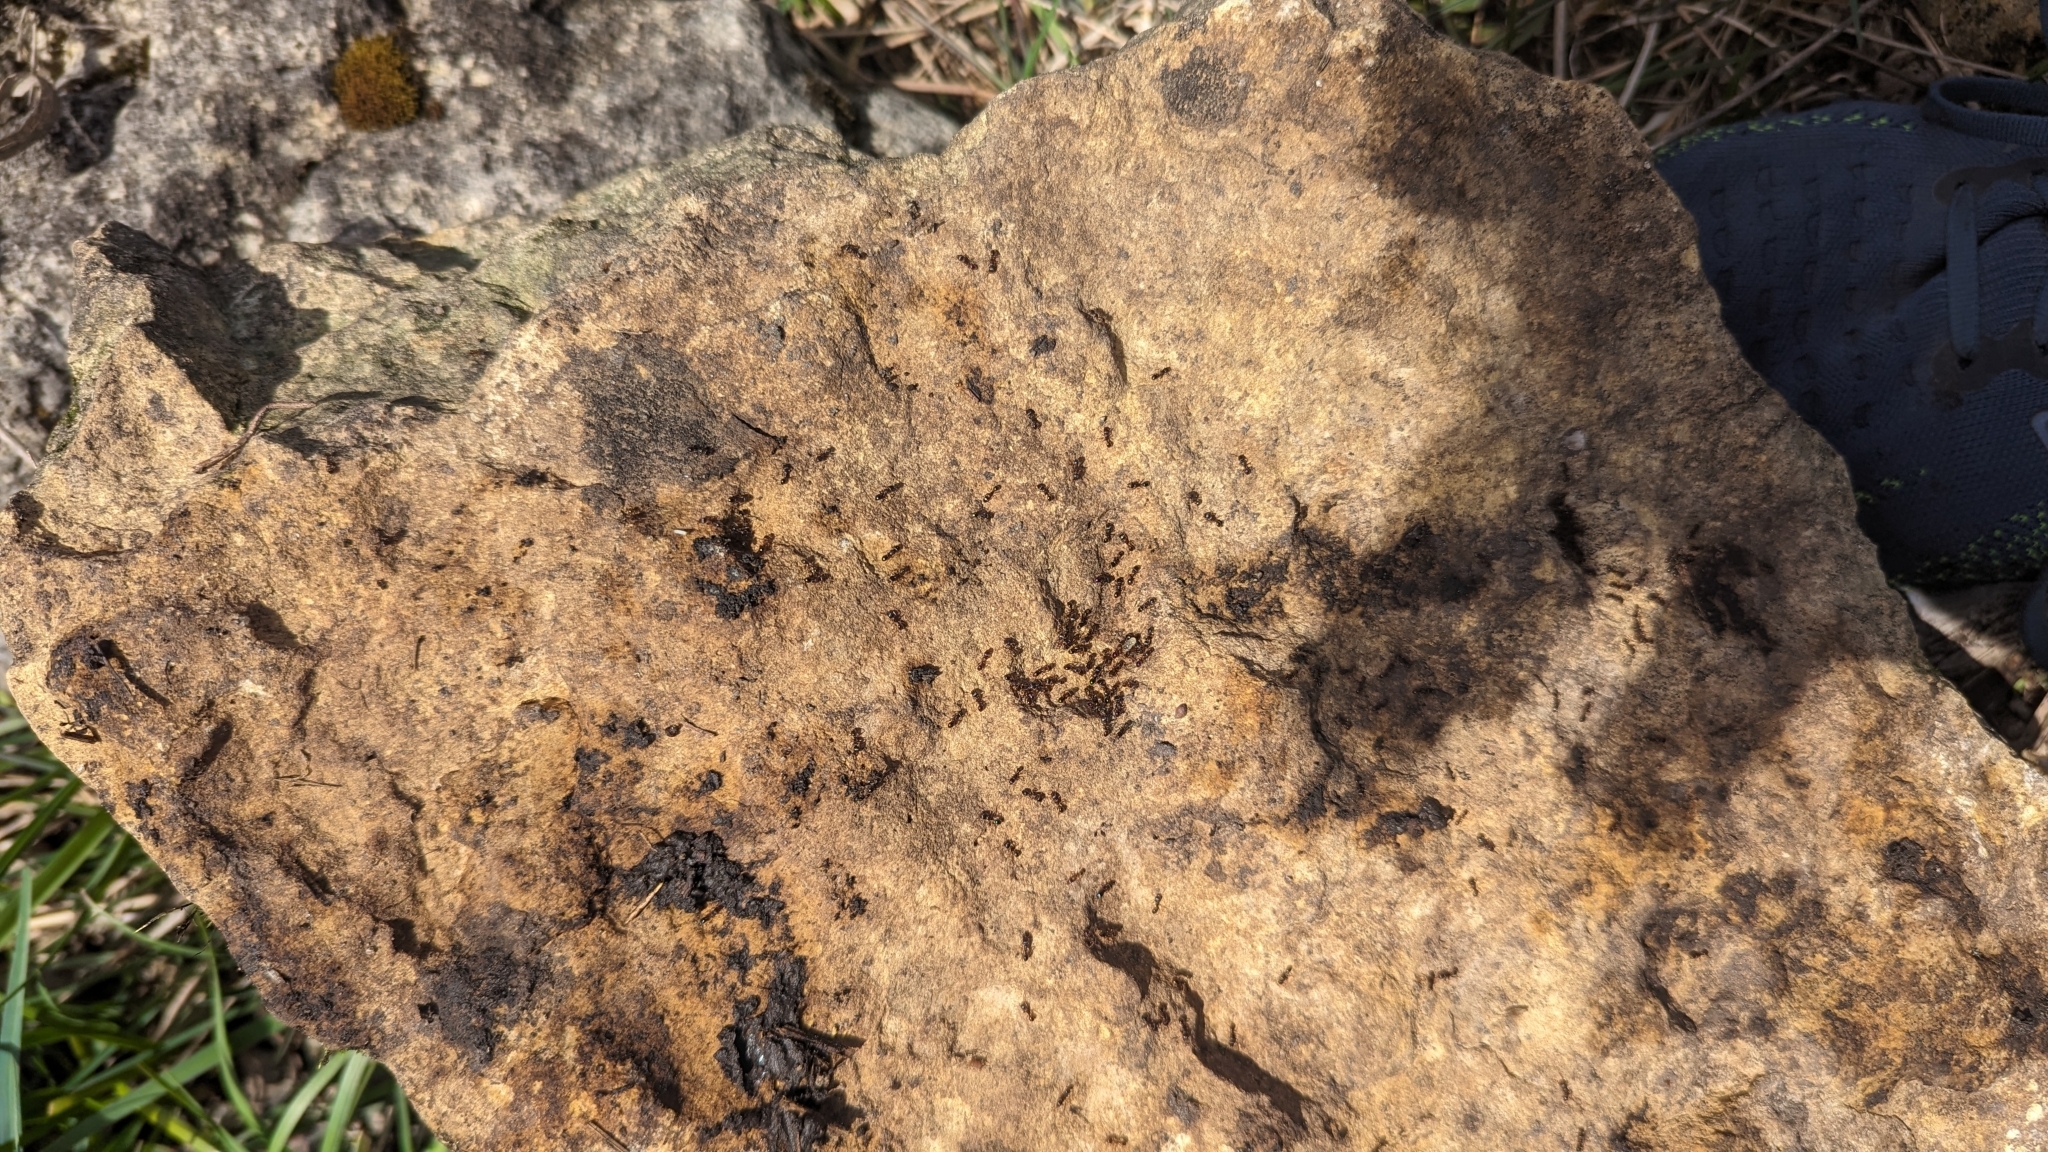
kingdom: Animalia
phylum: Arthropoda
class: Insecta
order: Hymenoptera
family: Formicidae
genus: Tetramorium
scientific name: Tetramorium immigrans
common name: Pavement ant
